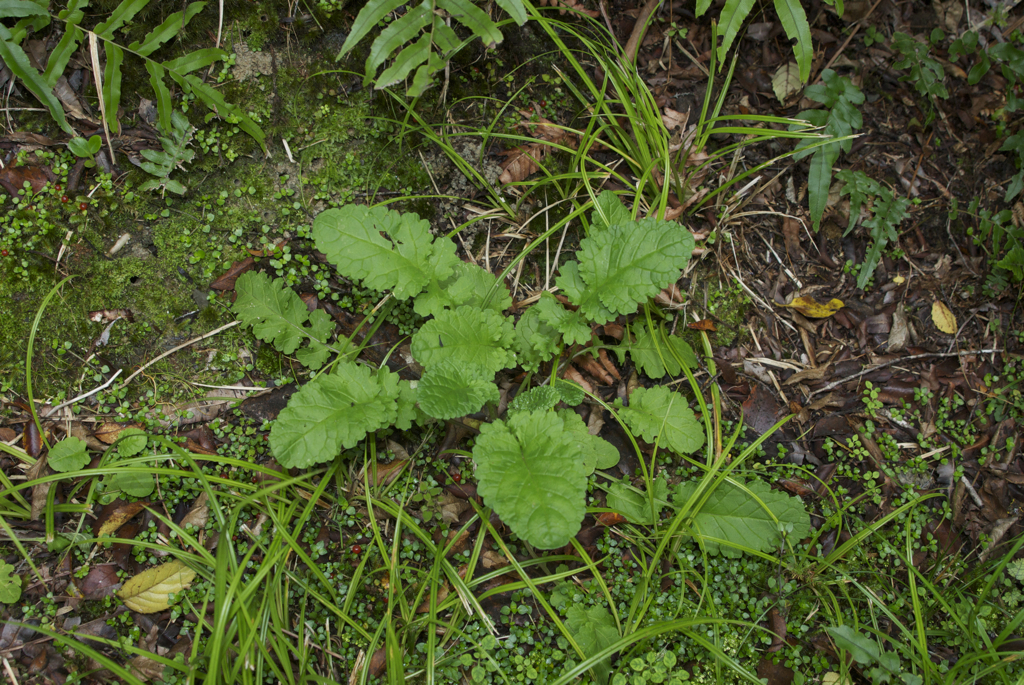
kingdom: Plantae
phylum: Tracheophyta
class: Magnoliopsida
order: Asterales
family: Asteraceae
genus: Jacobaea
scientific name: Jacobaea vulgaris
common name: Stinking willie
